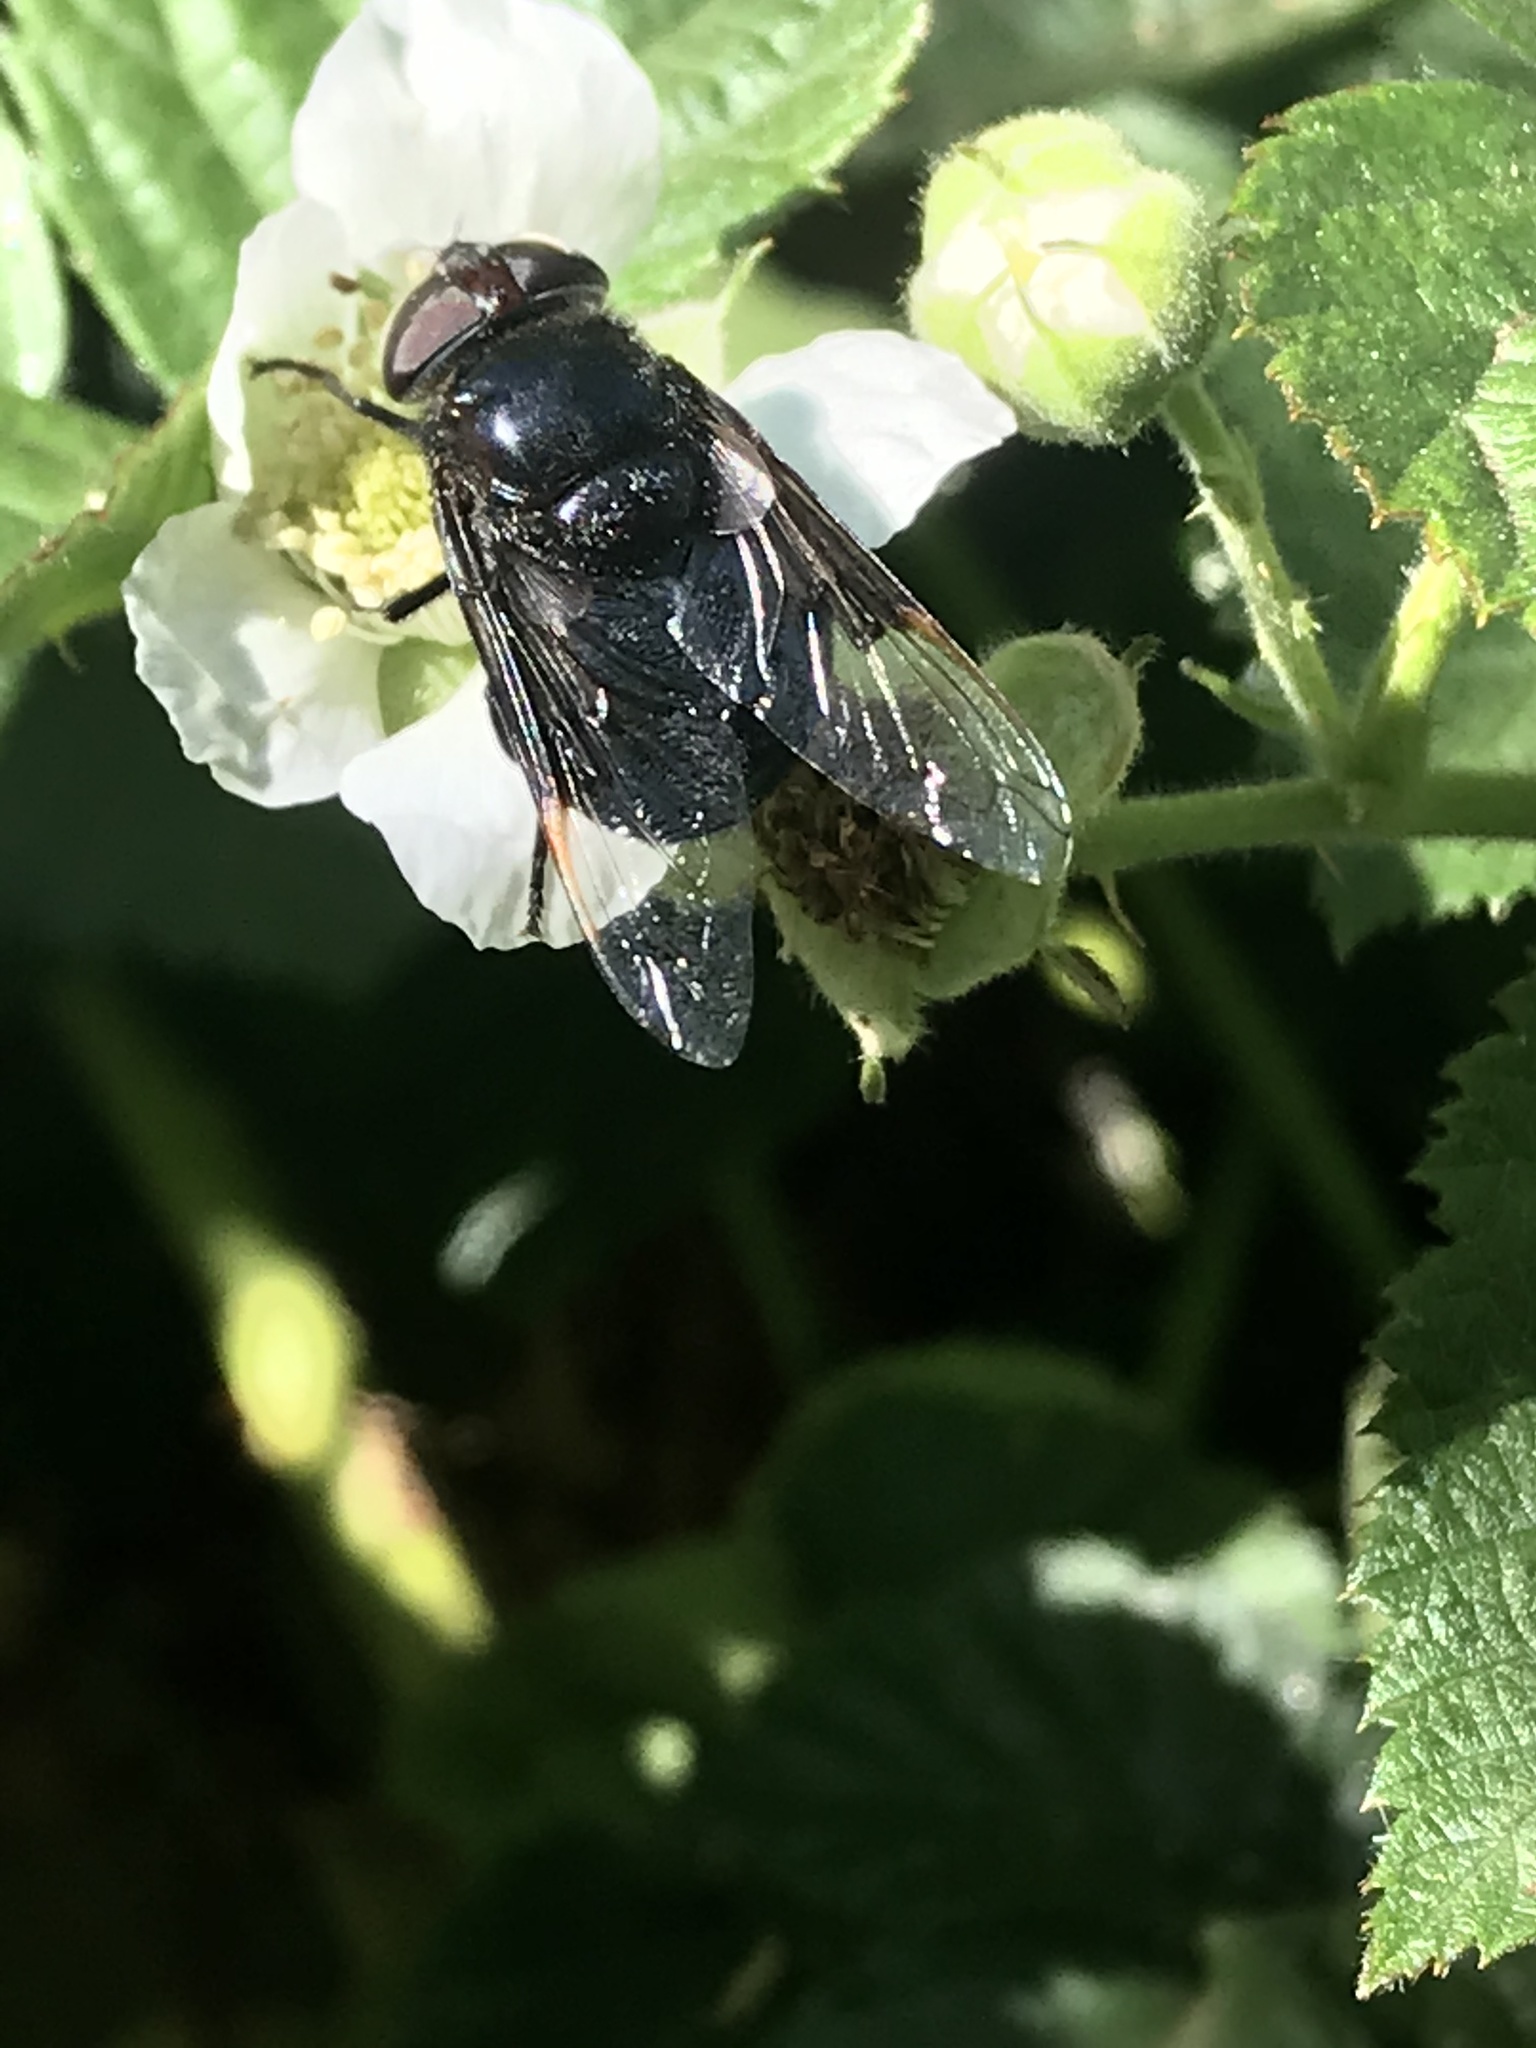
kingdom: Animalia
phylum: Arthropoda
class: Insecta
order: Diptera
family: Syrphidae
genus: Copestylum
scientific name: Copestylum violaceum
